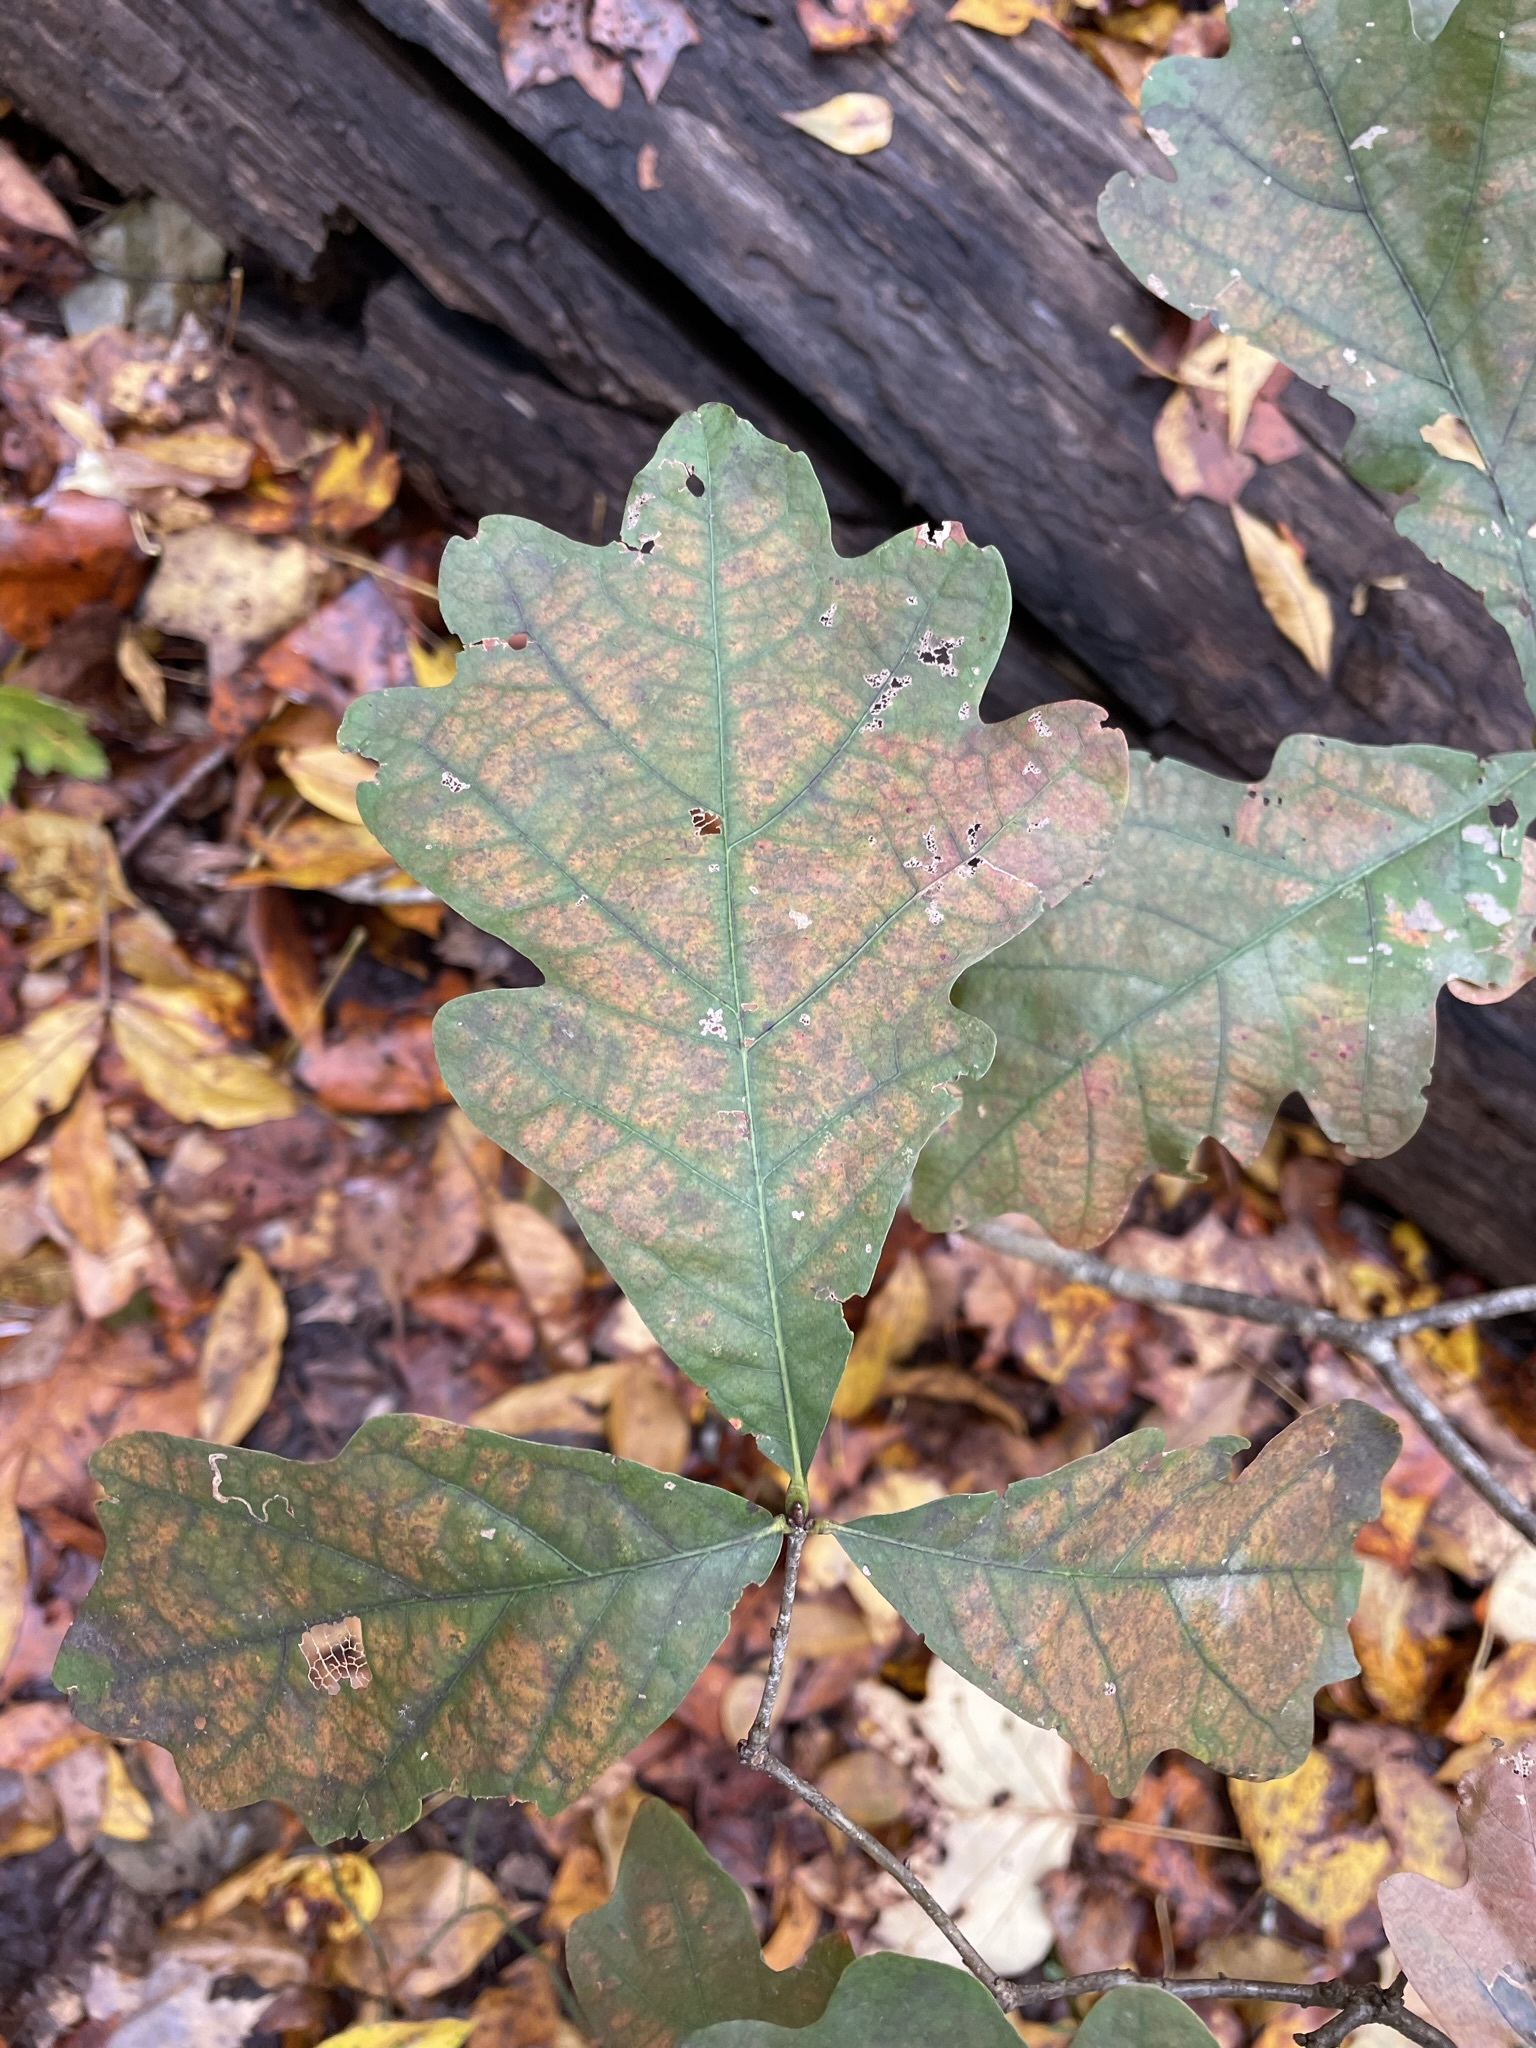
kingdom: Plantae
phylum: Tracheophyta
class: Magnoliopsida
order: Fagales
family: Fagaceae
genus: Quercus
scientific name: Quercus alba
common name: White oak
